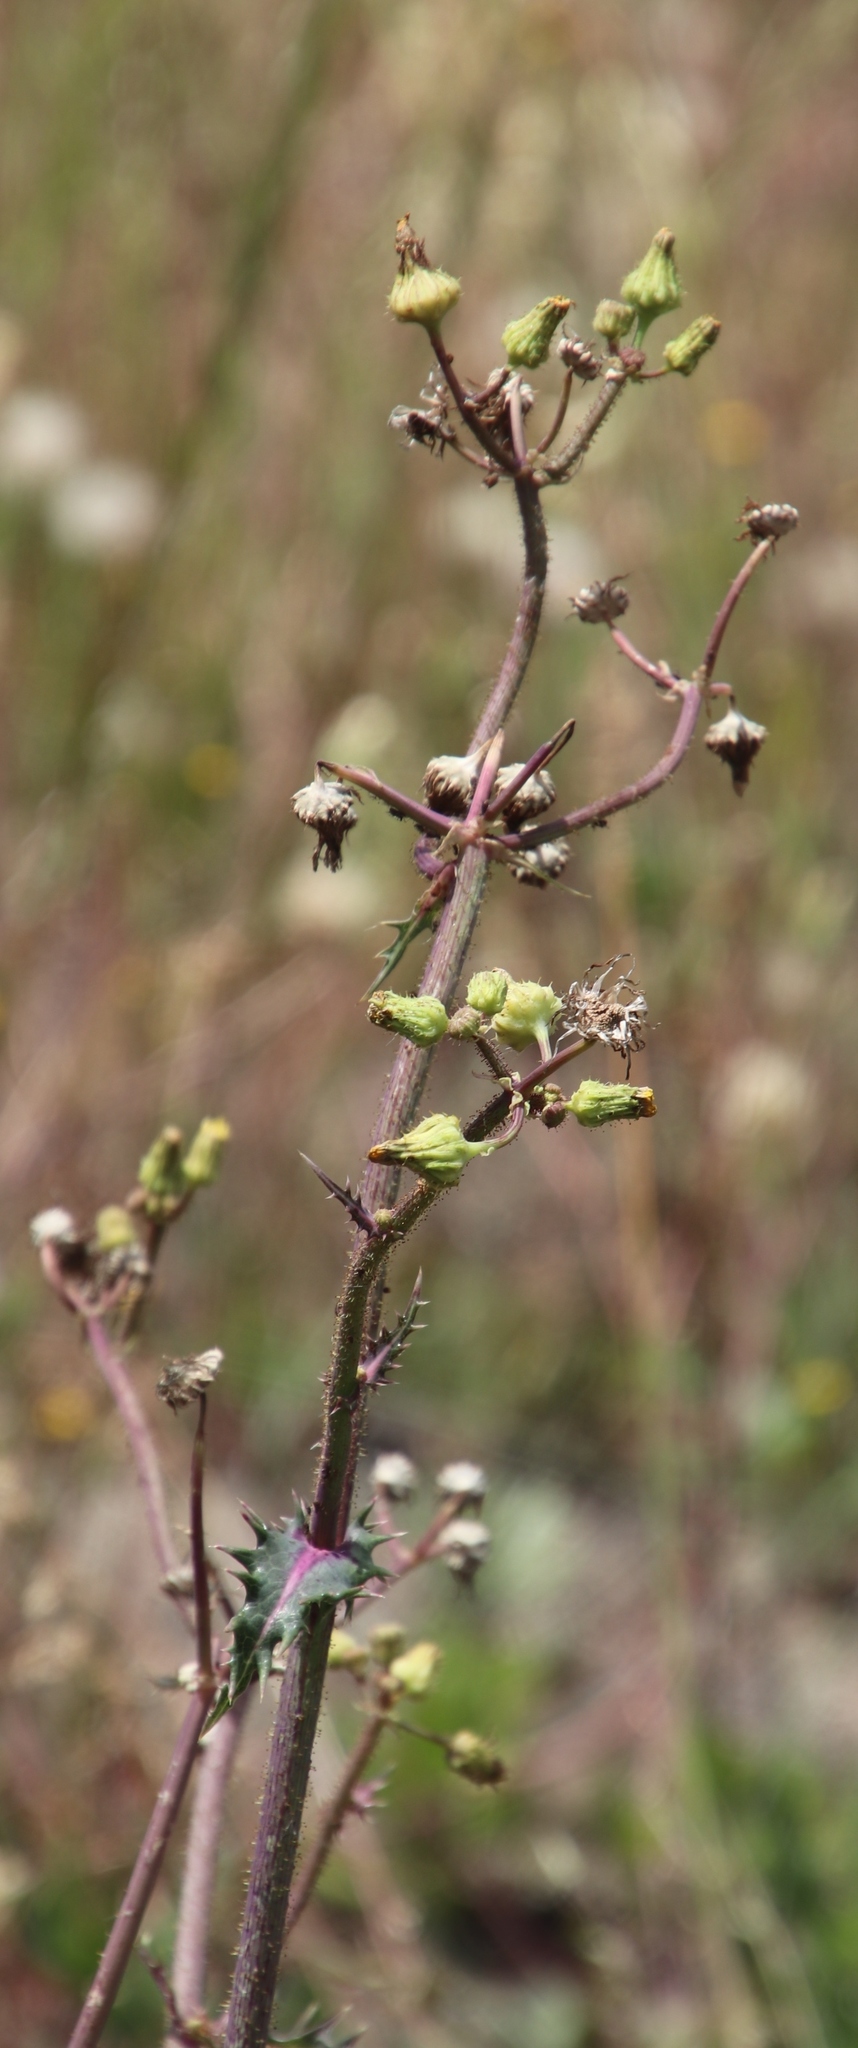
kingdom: Plantae
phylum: Tracheophyta
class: Magnoliopsida
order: Asterales
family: Asteraceae
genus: Sonchus
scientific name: Sonchus asper
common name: Prickly sow-thistle
